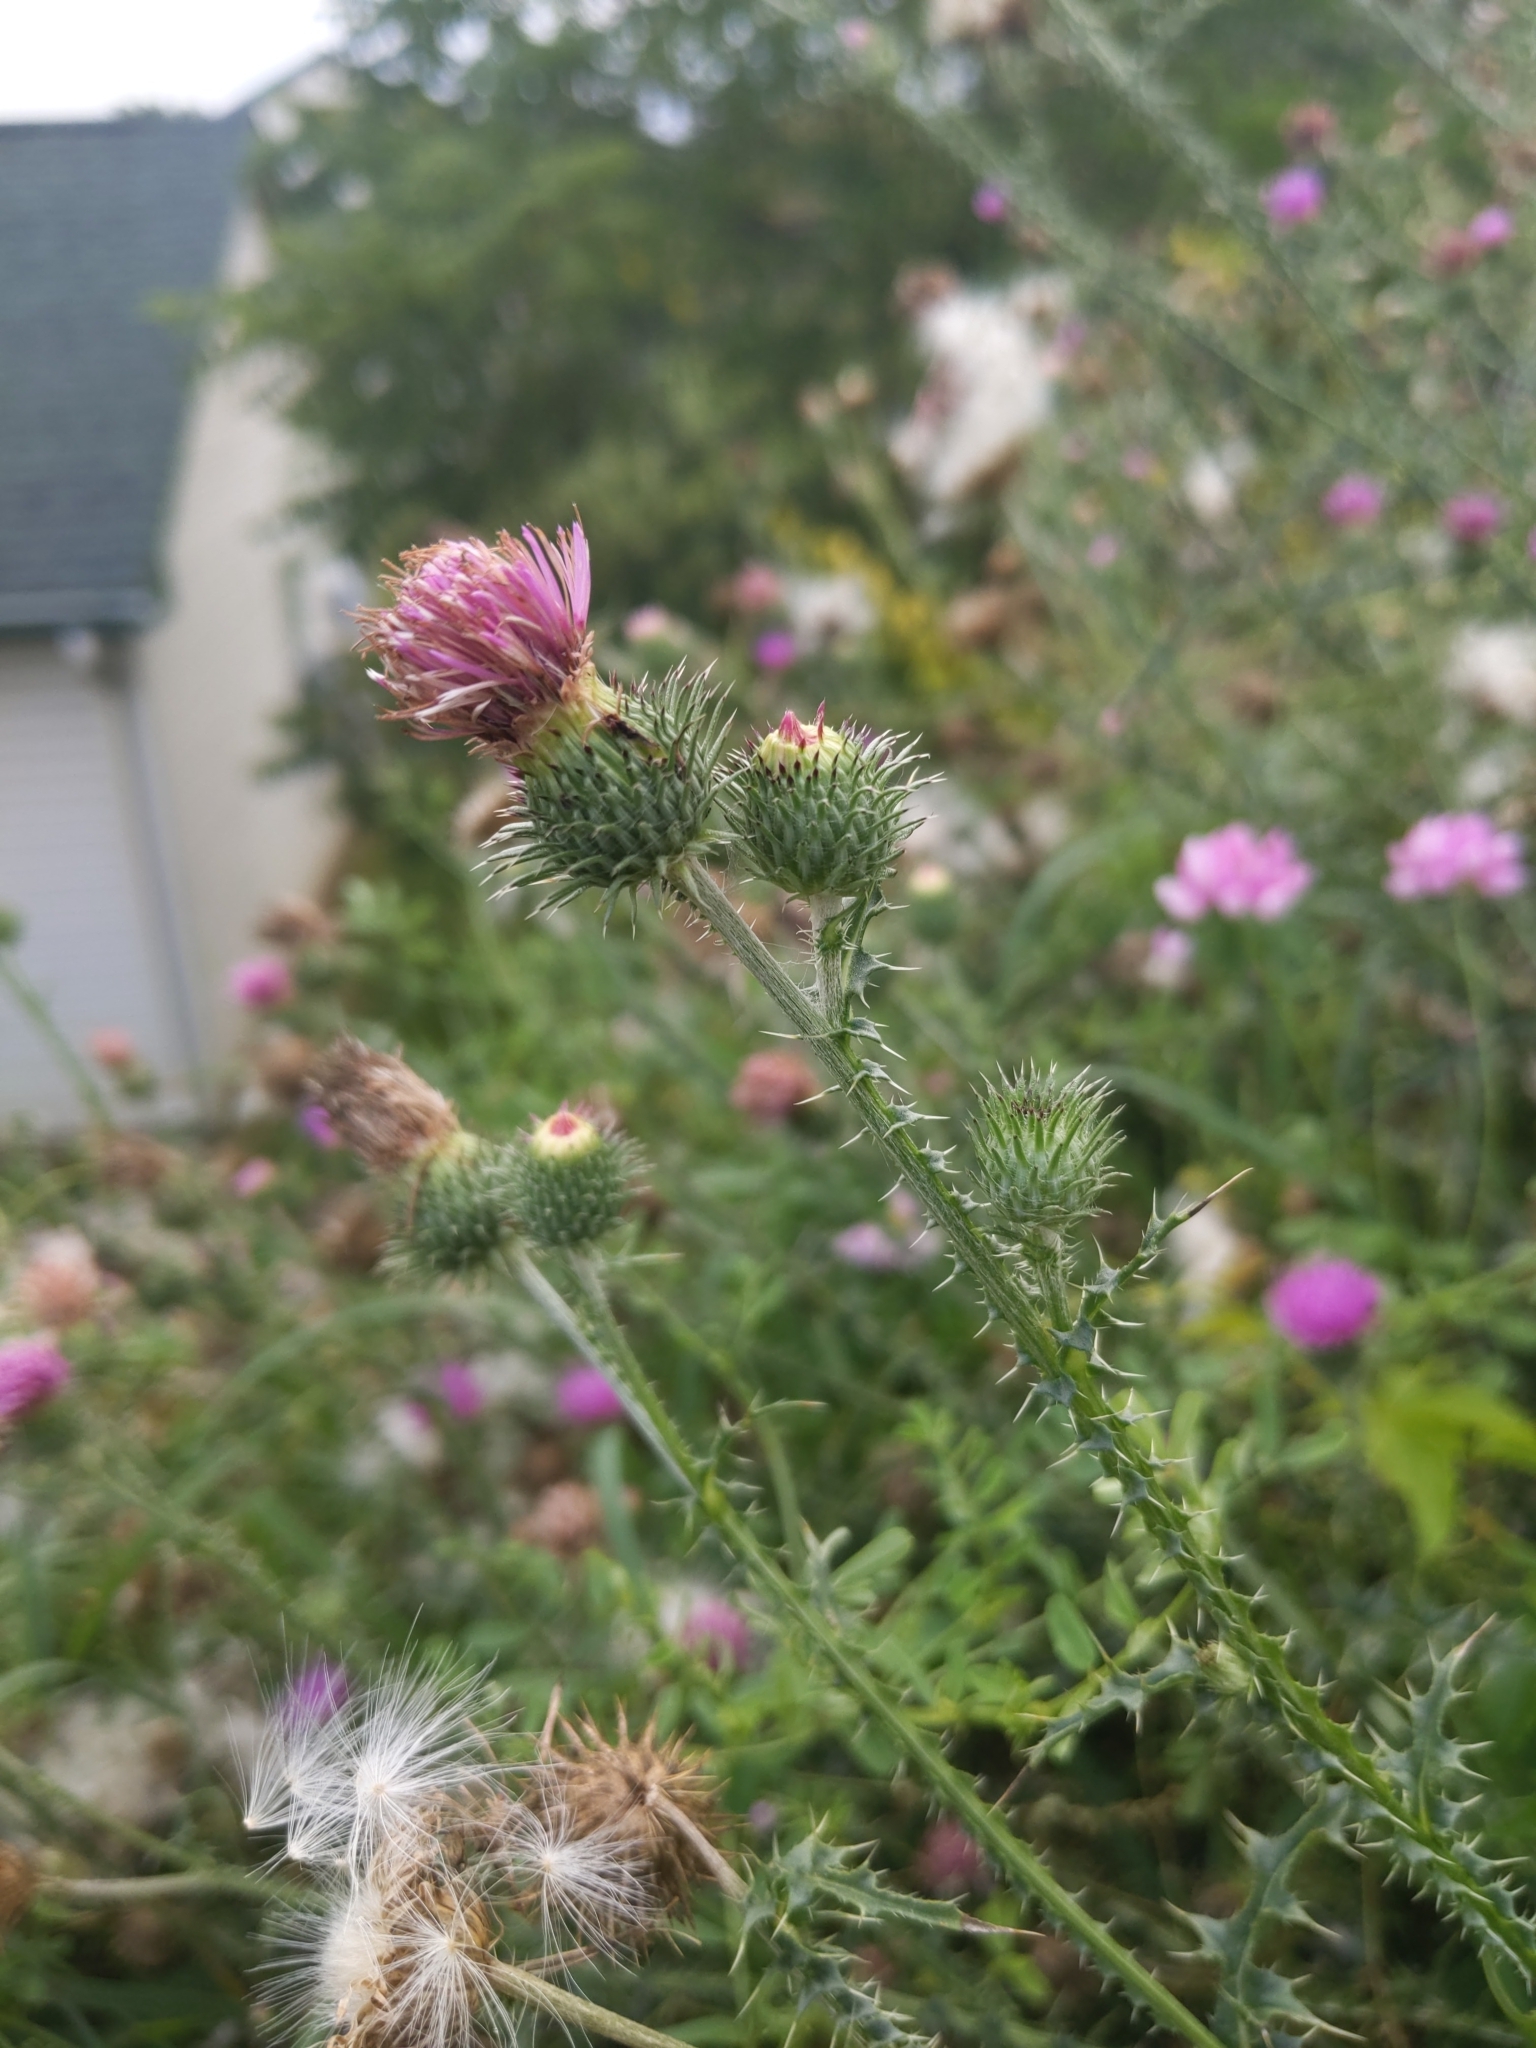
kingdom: Plantae
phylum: Tracheophyta
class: Magnoliopsida
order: Asterales
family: Asteraceae
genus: Carduus
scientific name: Carduus acanthoides
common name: Plumeless thistle
